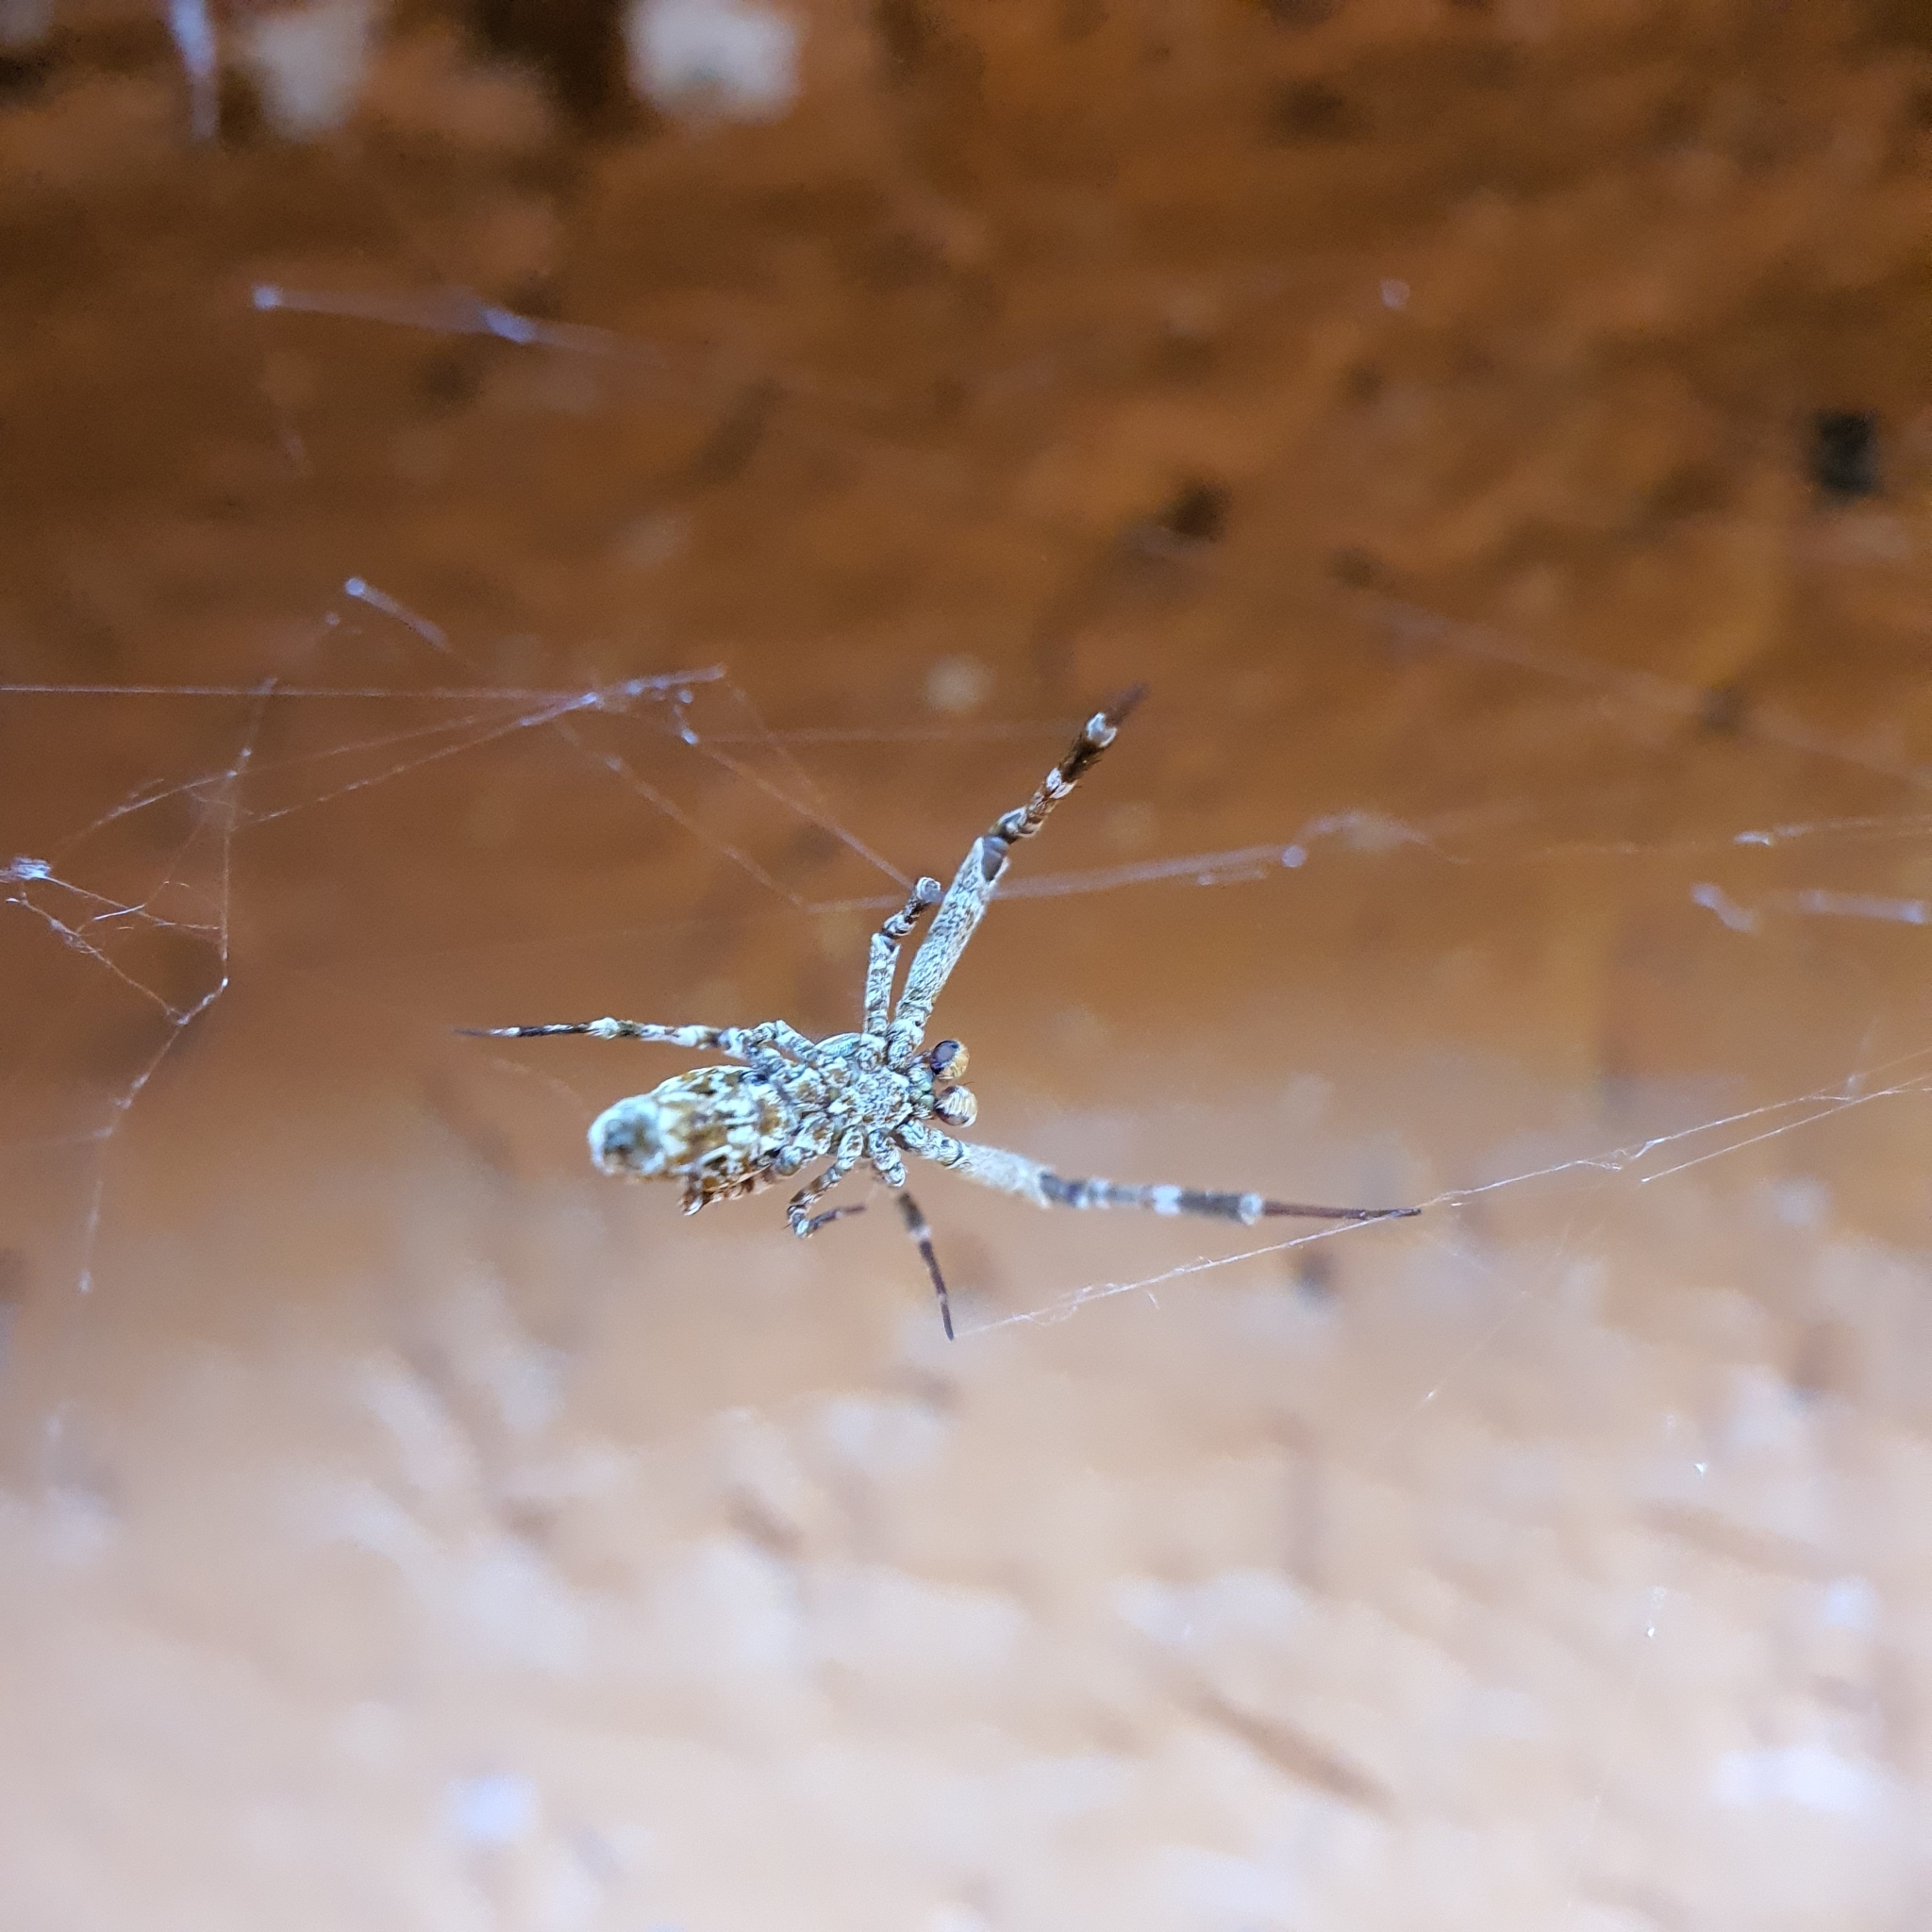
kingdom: Animalia
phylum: Arthropoda
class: Arachnida
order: Araneae
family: Uloboridae
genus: Philoponella
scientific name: Philoponella congregabilis
